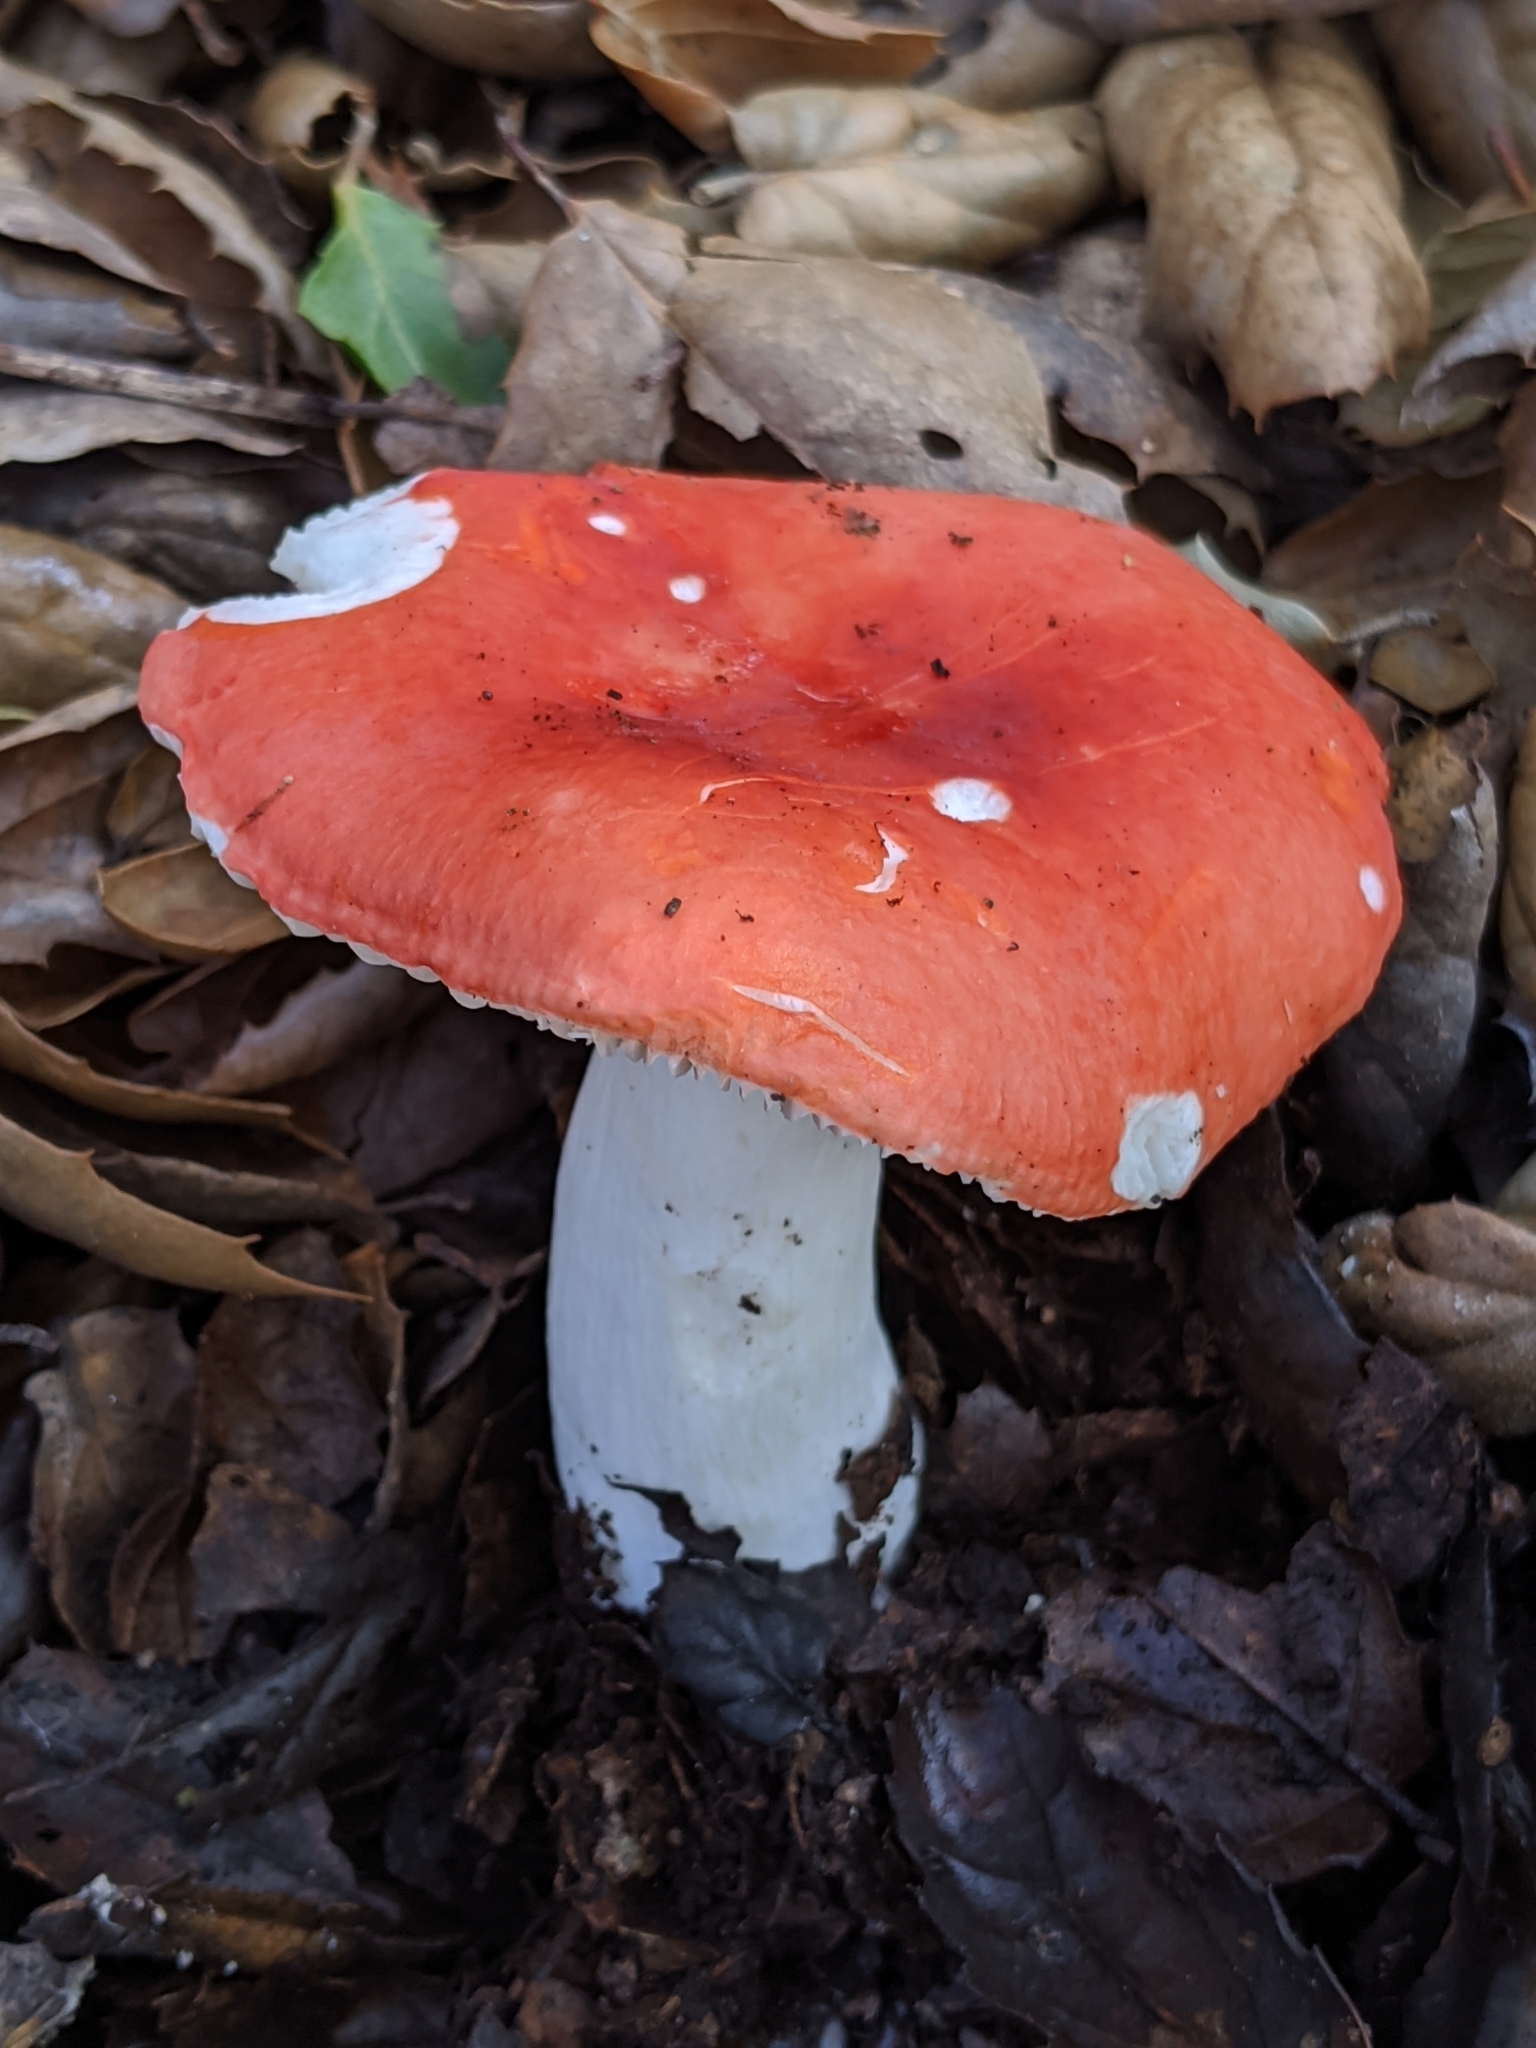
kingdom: Fungi
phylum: Basidiomycota
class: Agaricomycetes
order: Russulales
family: Russulaceae
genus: Russula
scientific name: Russula cremoricolor
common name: Winter russula
